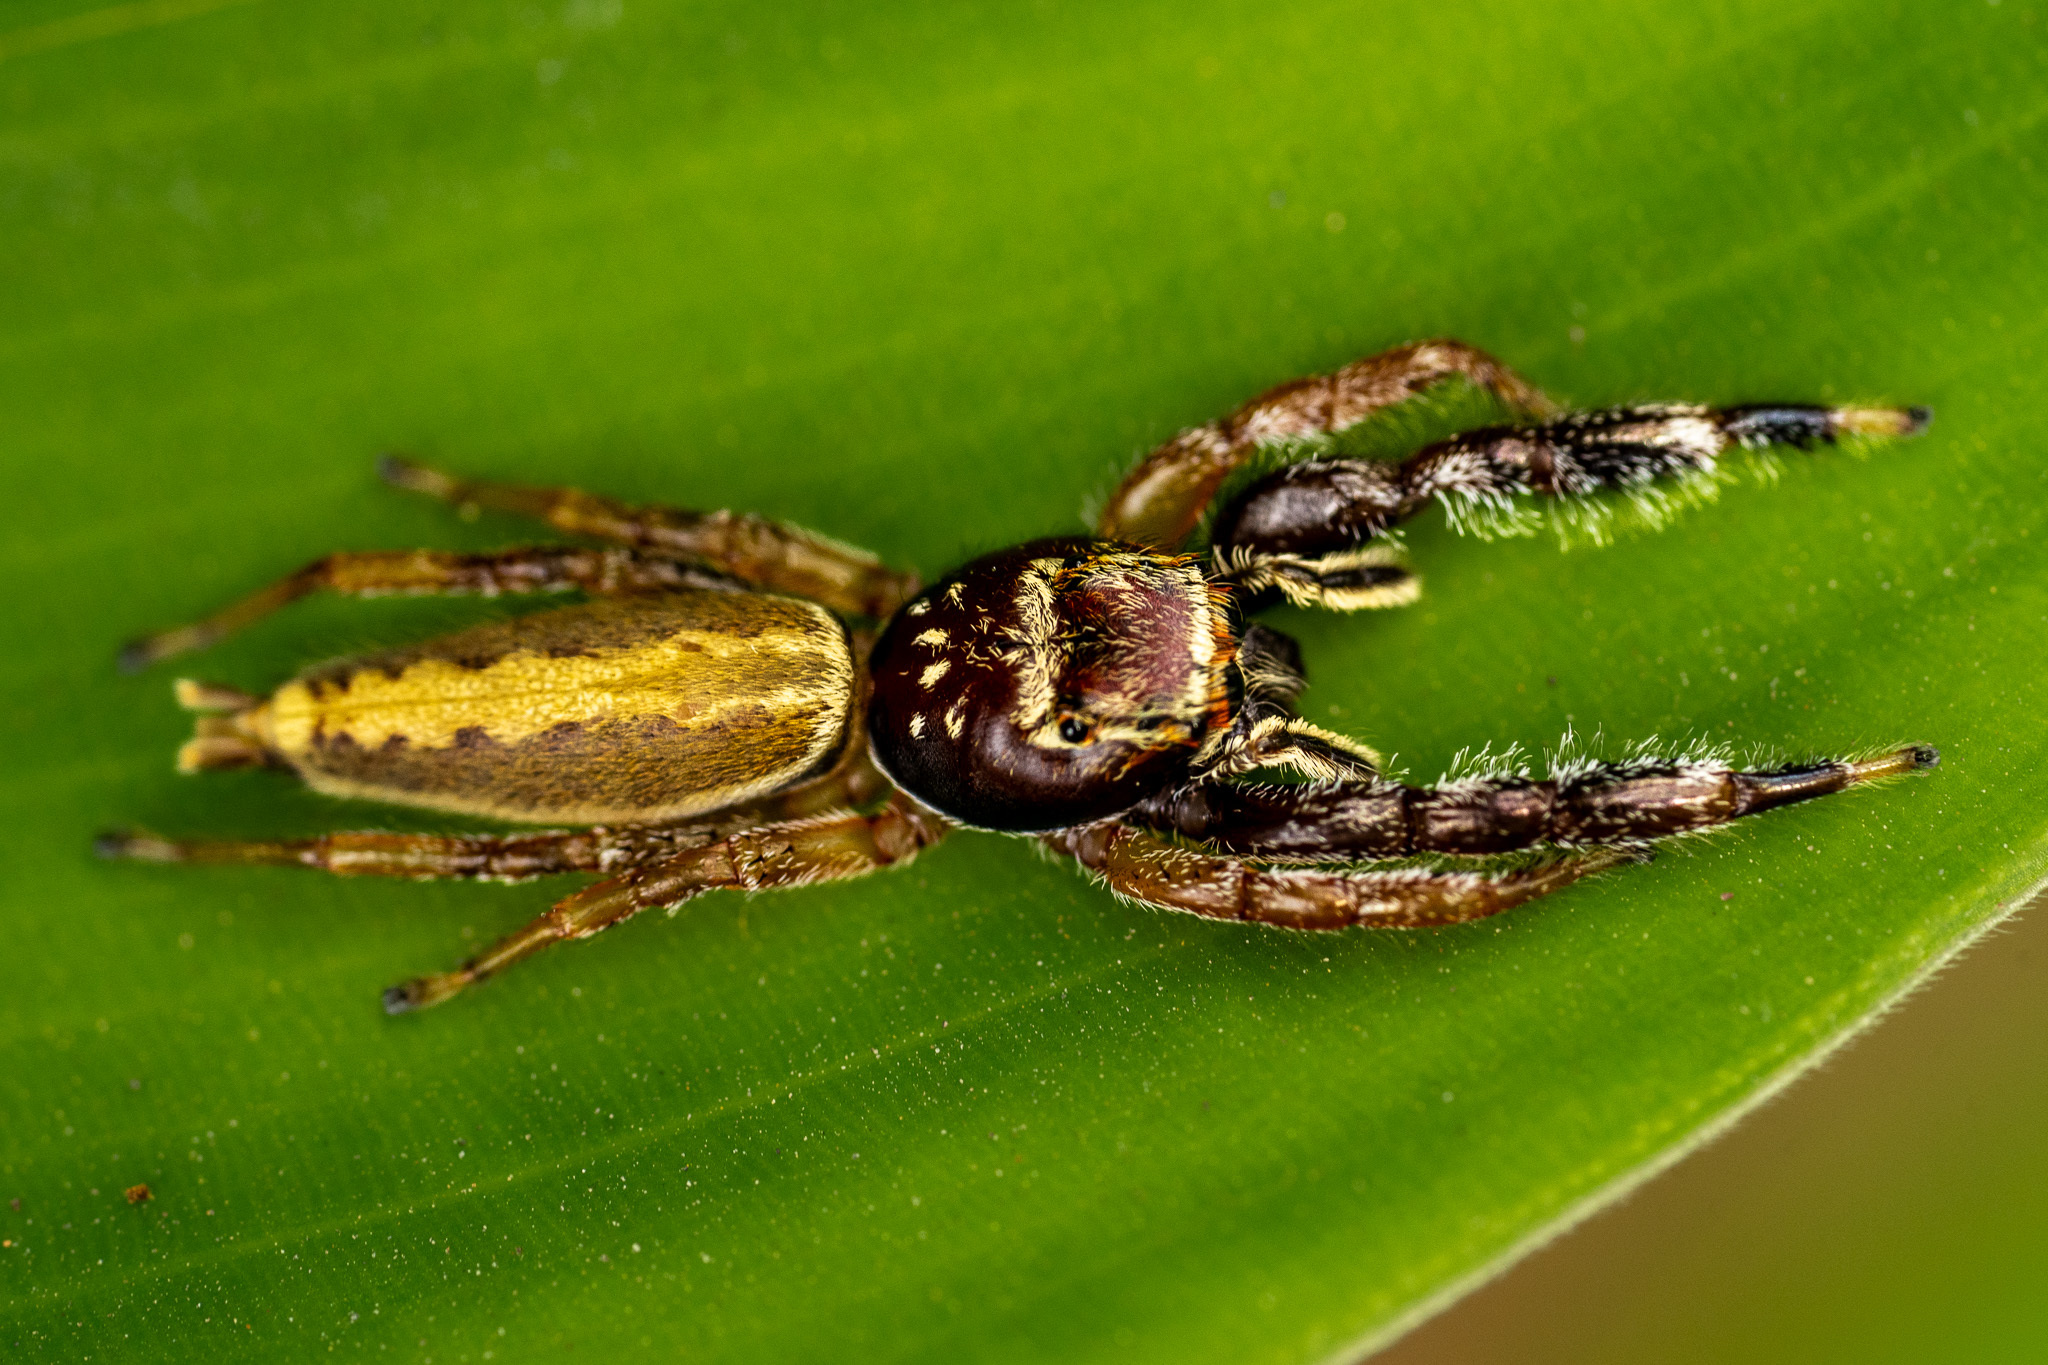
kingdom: Animalia
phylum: Arthropoda
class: Arachnida
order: Araneae
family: Salticidae
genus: Bavia
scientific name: Bavia aericeps
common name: Jumping spider
